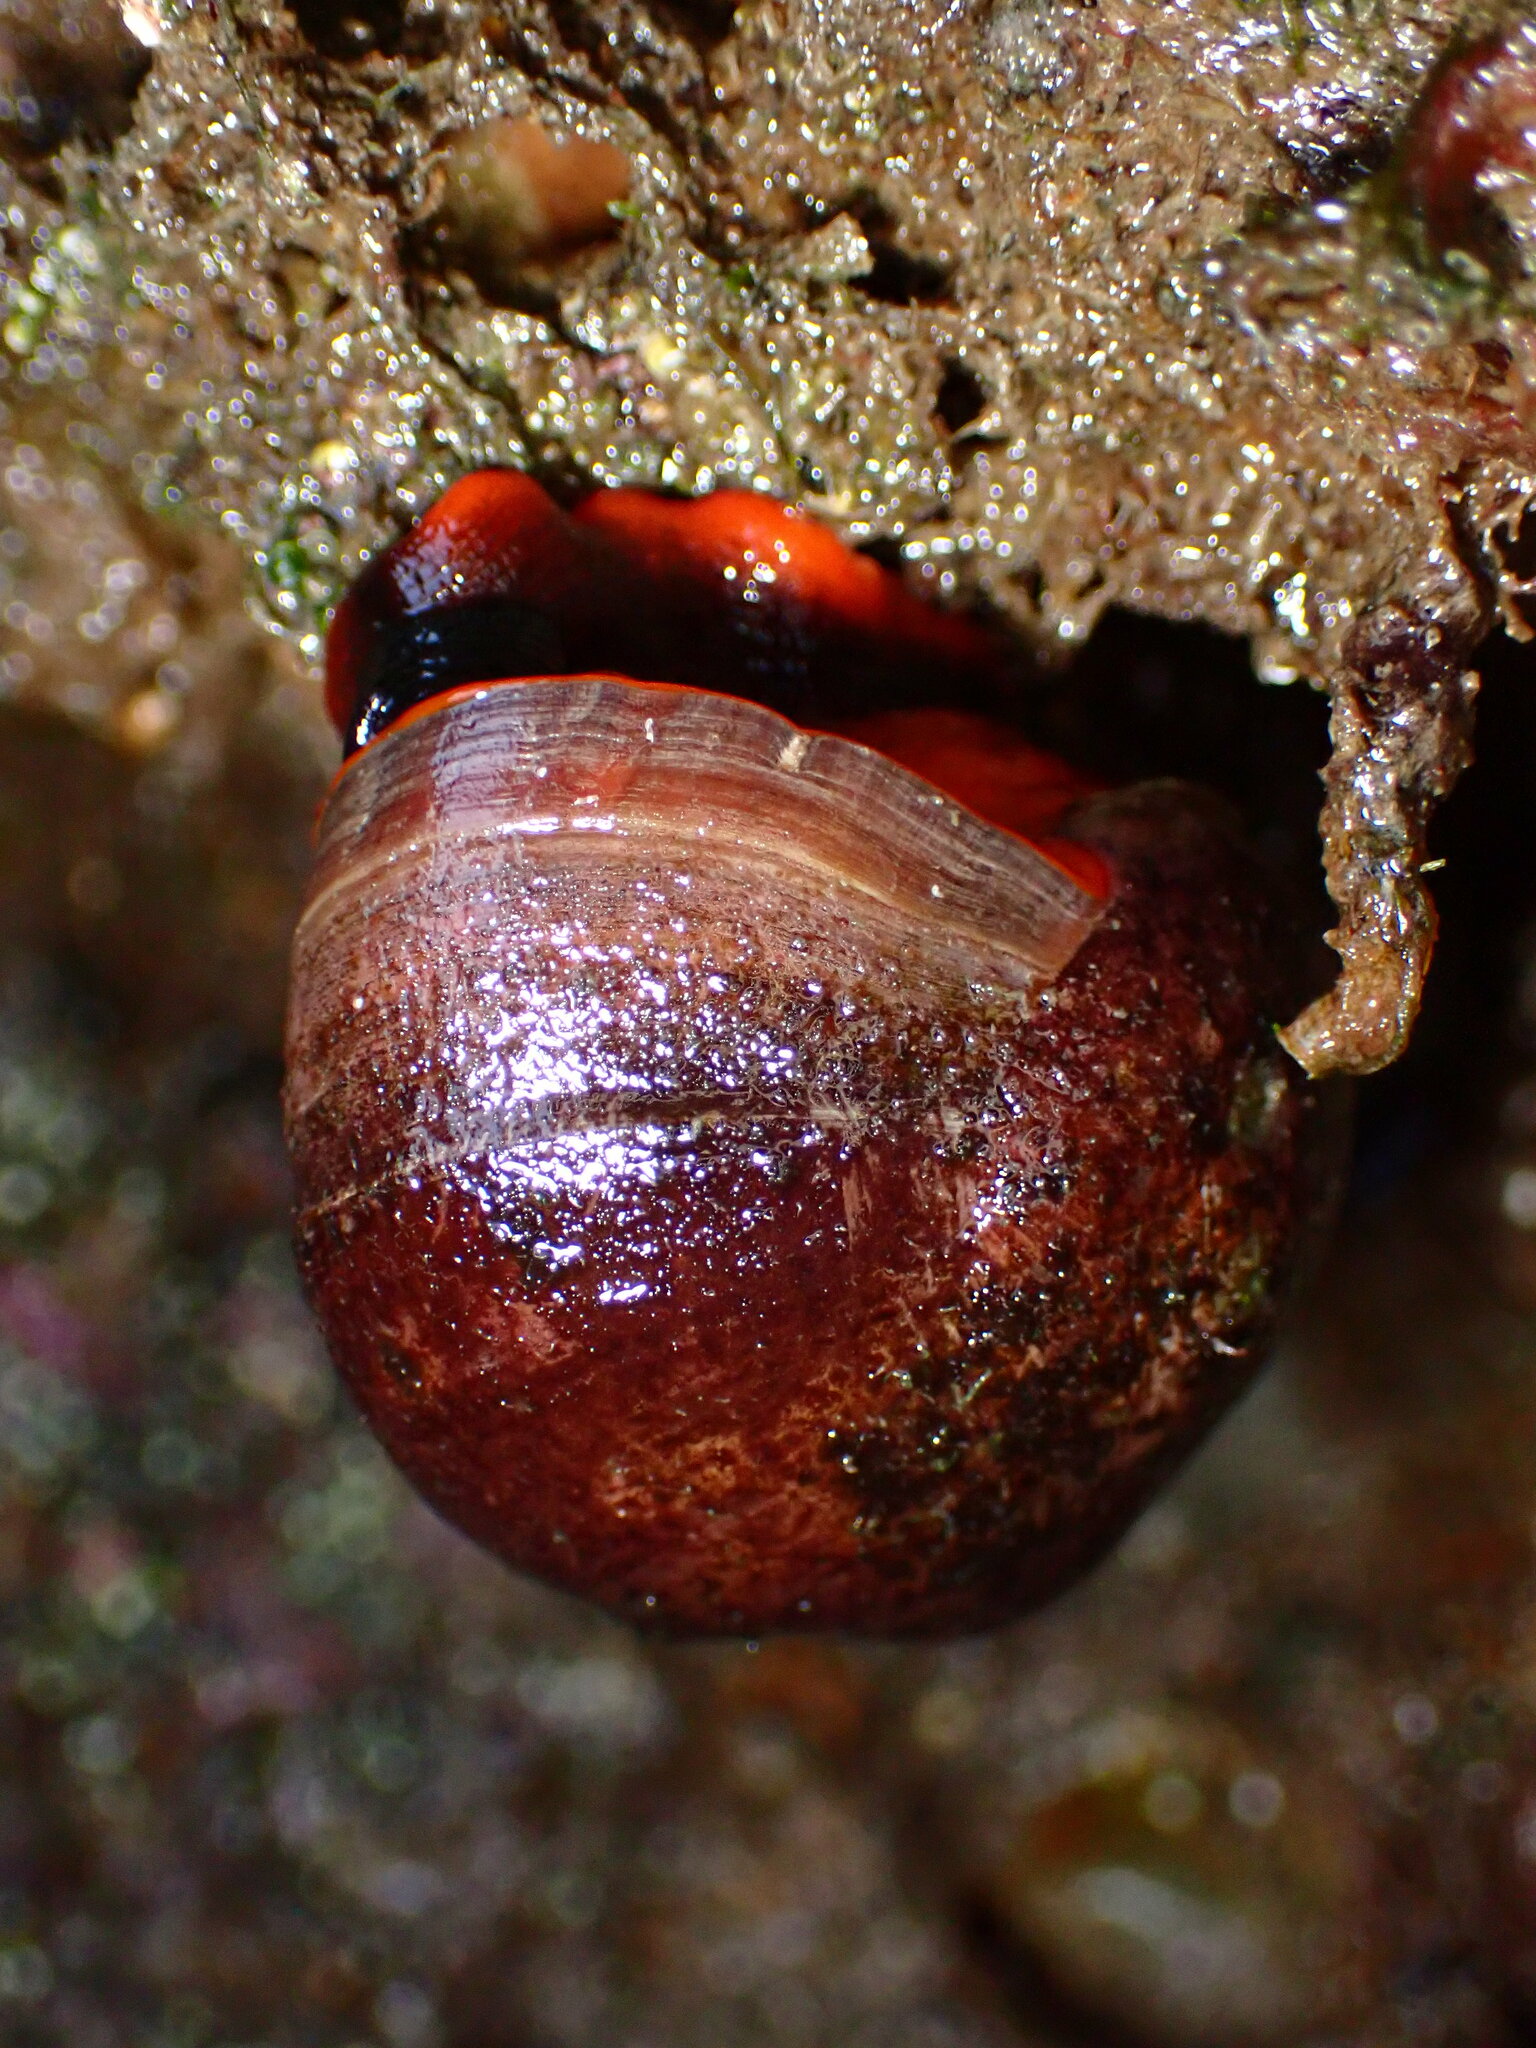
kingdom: Animalia
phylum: Mollusca
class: Gastropoda
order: Trochida
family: Tegulidae
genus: Norrisia
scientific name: Norrisia norrisii
